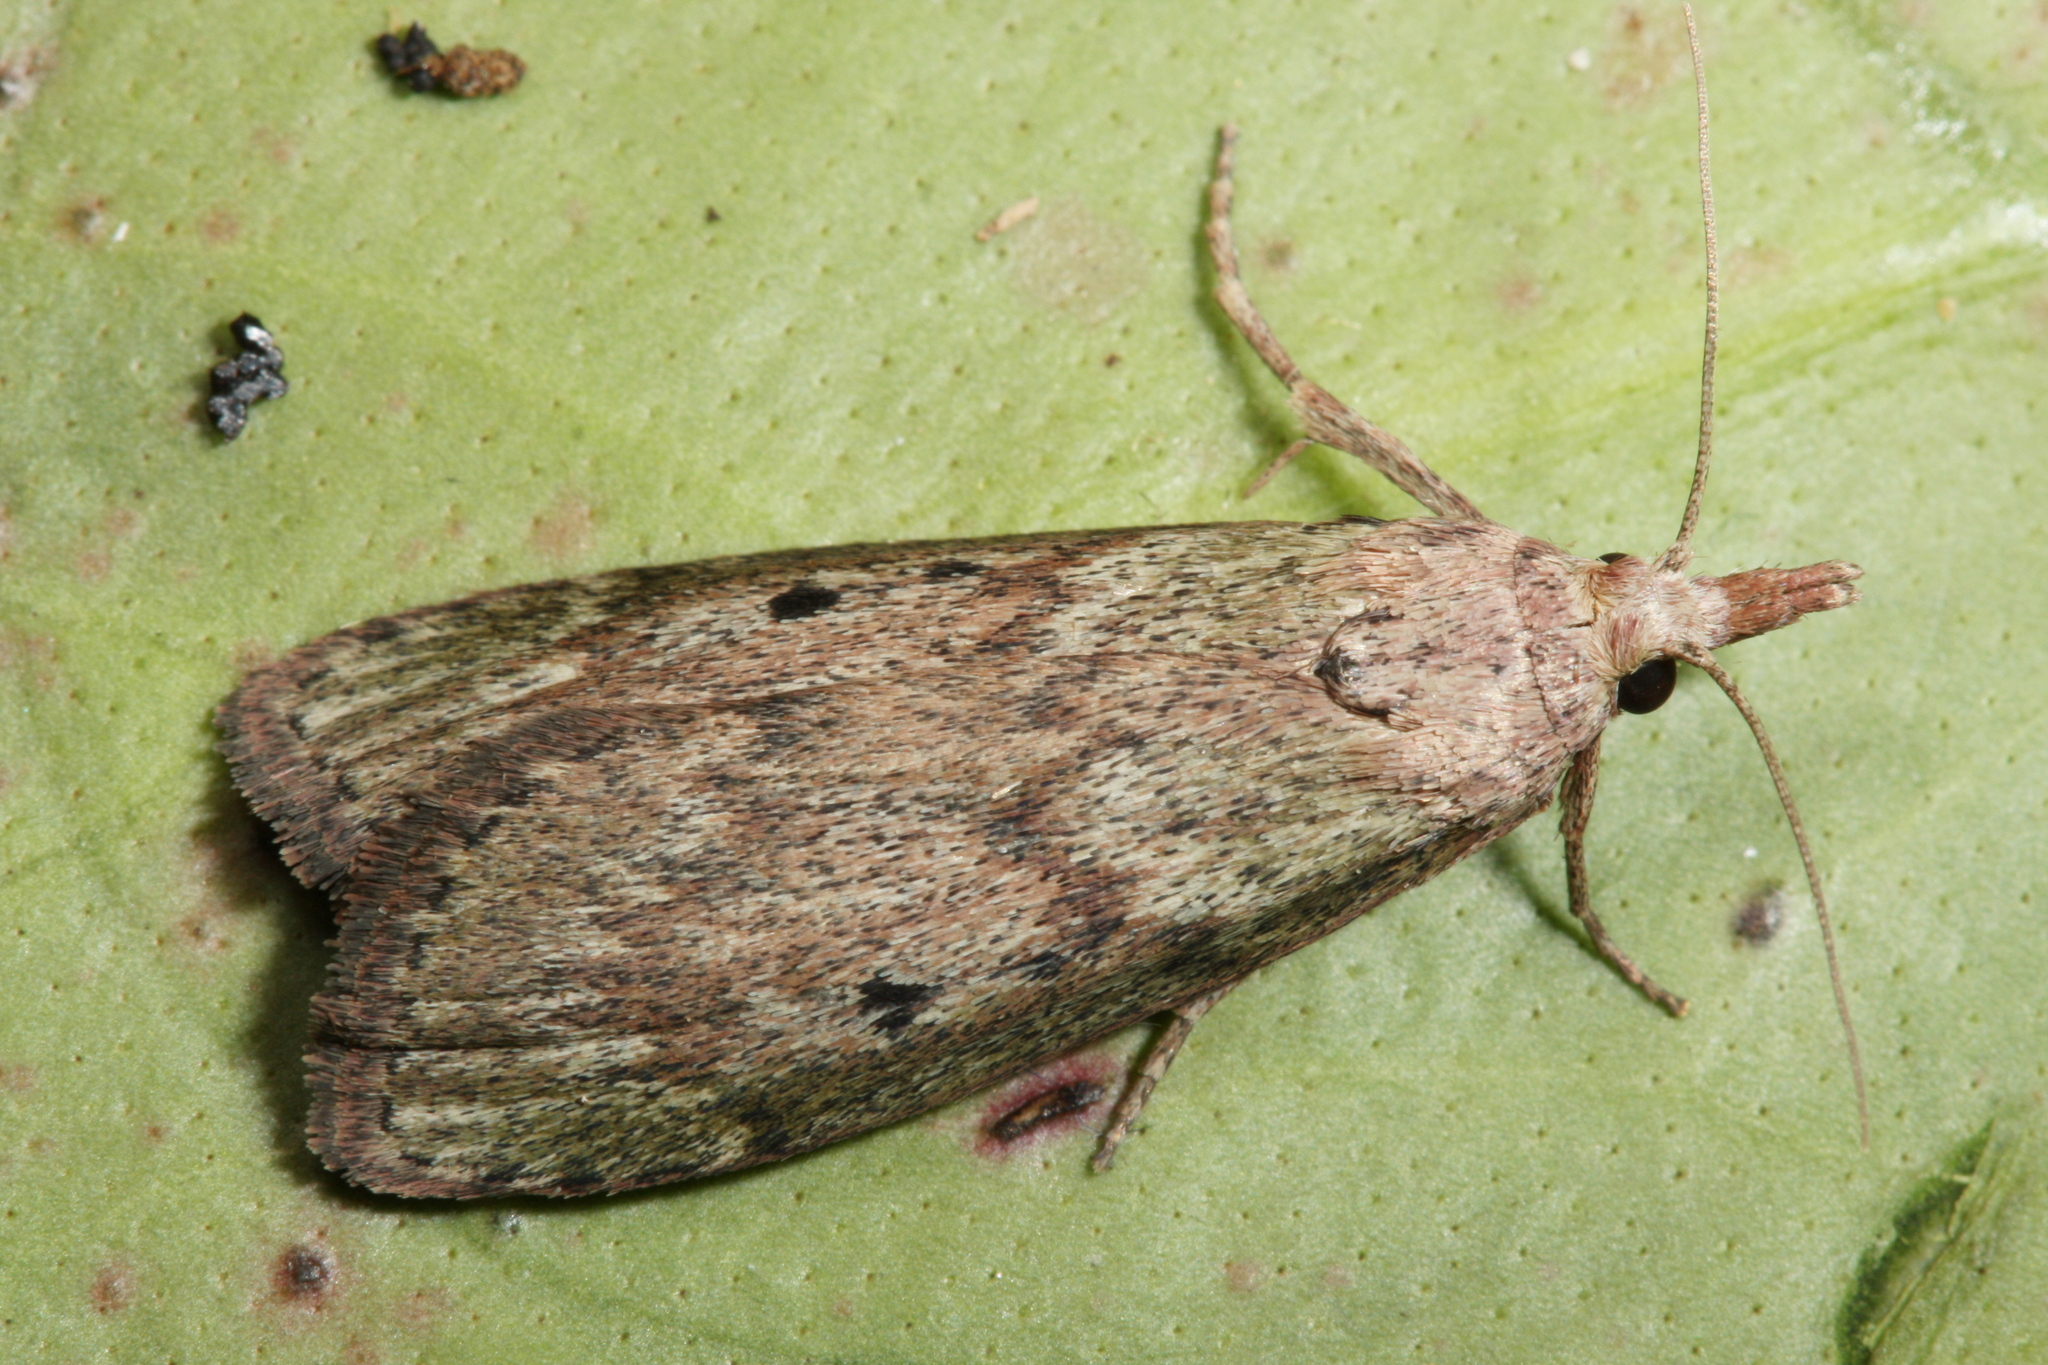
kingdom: Animalia
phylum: Arthropoda
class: Insecta
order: Lepidoptera
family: Pyralidae
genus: Aphomia
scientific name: Aphomia sociella
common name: Bee moth
